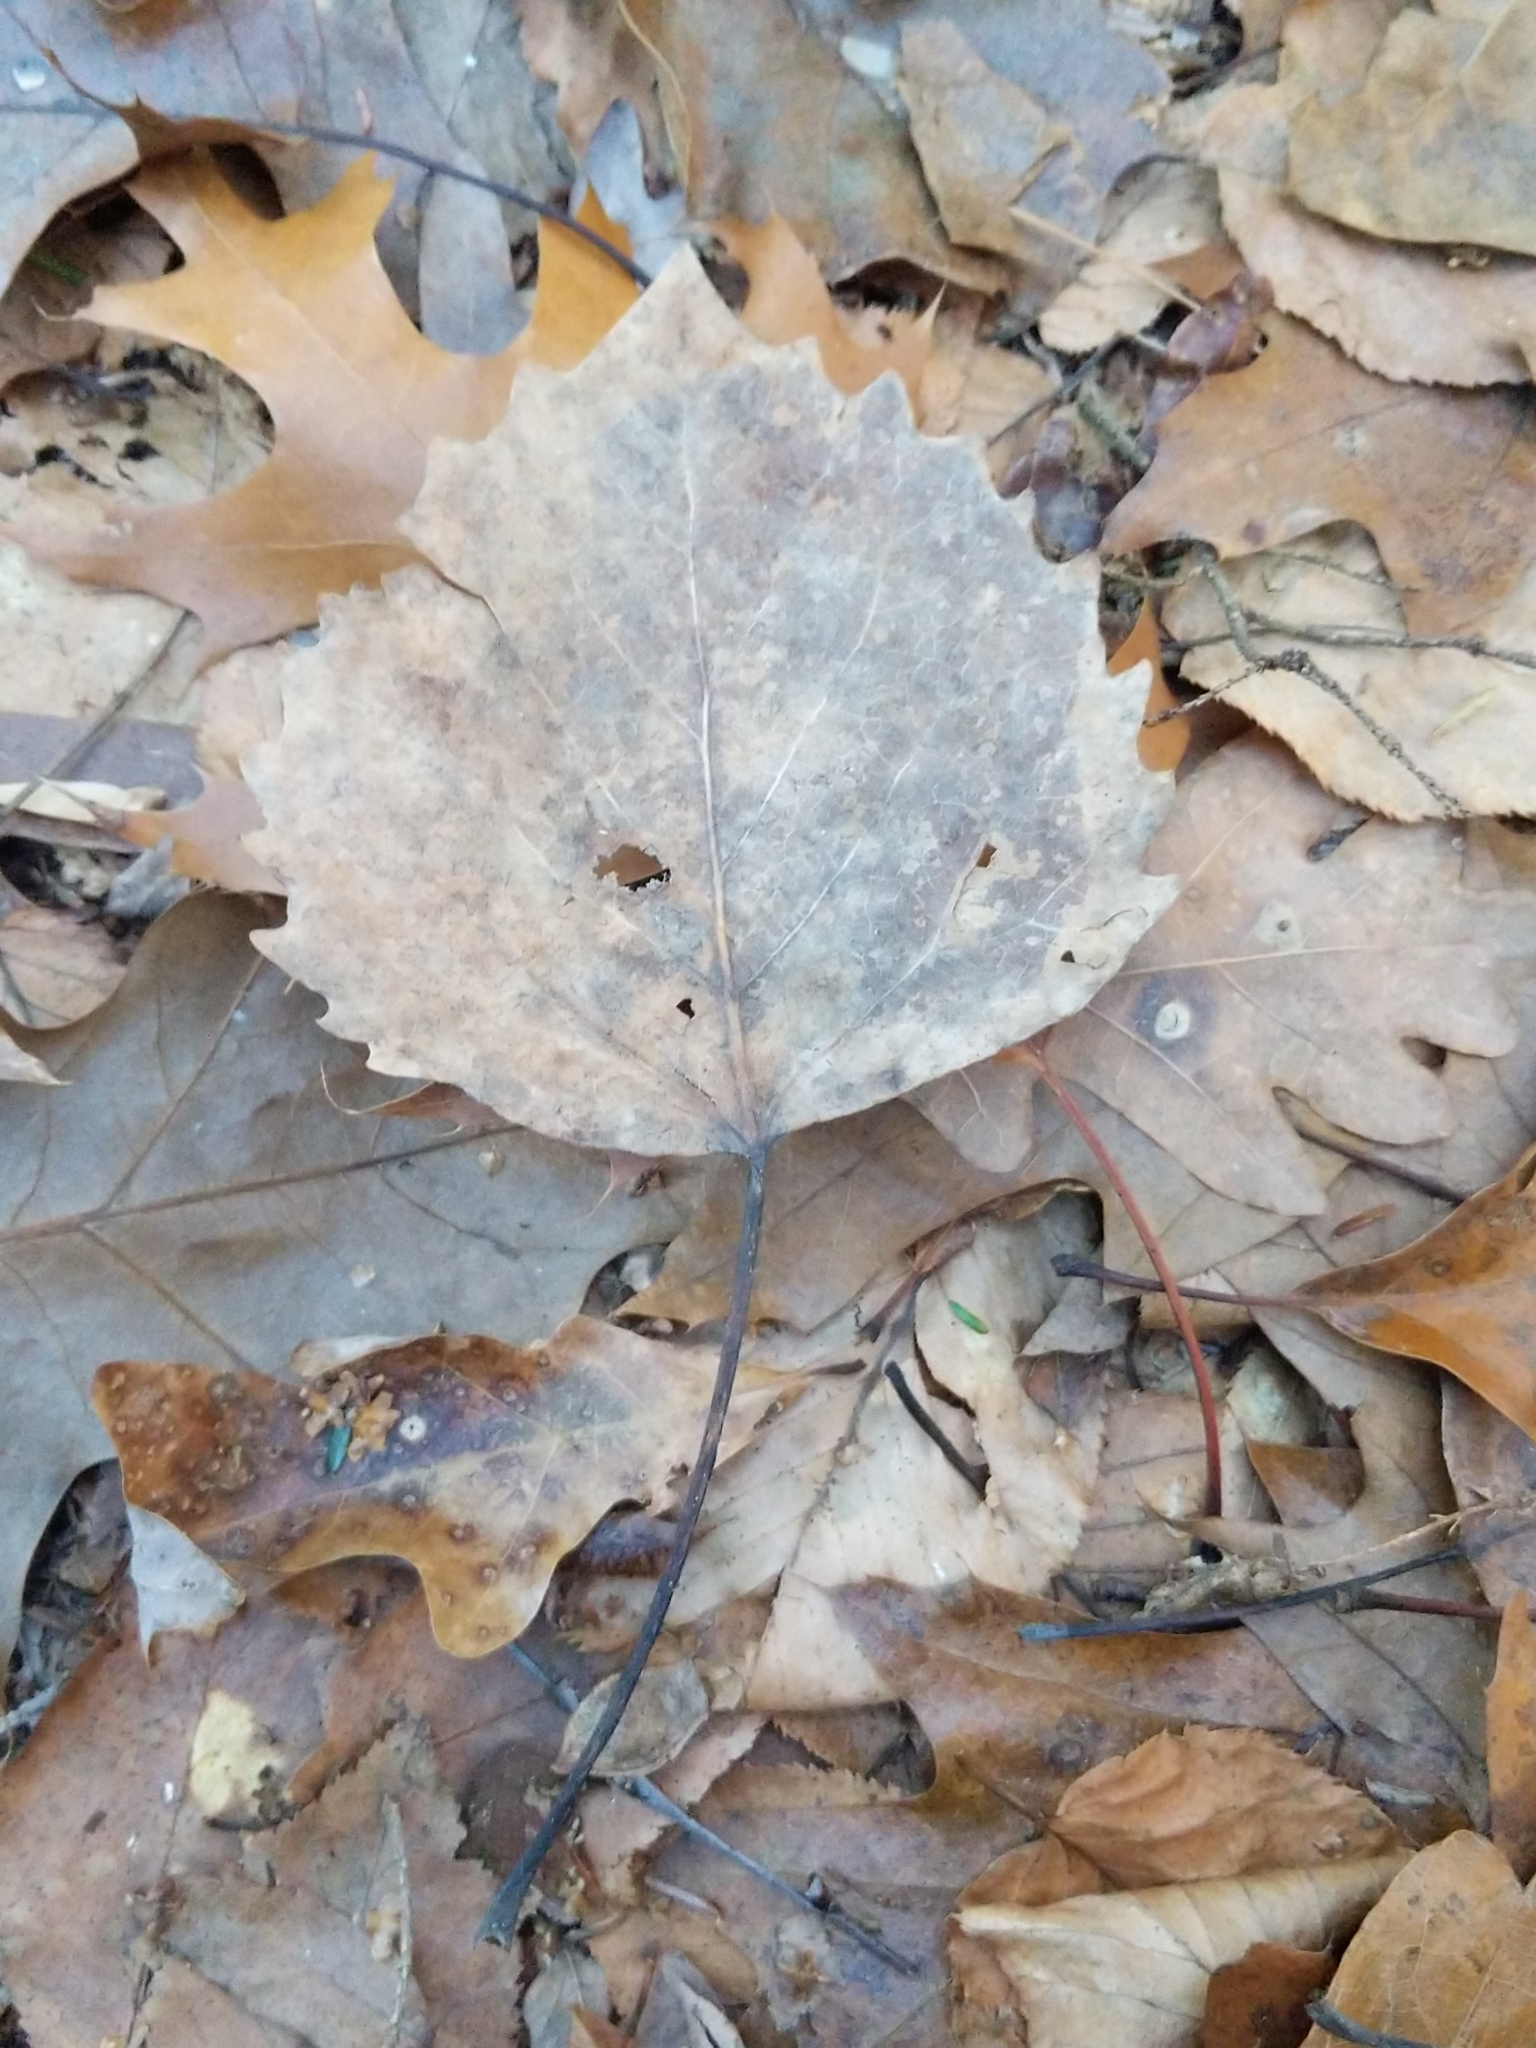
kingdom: Plantae
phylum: Tracheophyta
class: Magnoliopsida
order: Malpighiales
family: Salicaceae
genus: Populus
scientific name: Populus grandidentata
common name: Bigtooth aspen
